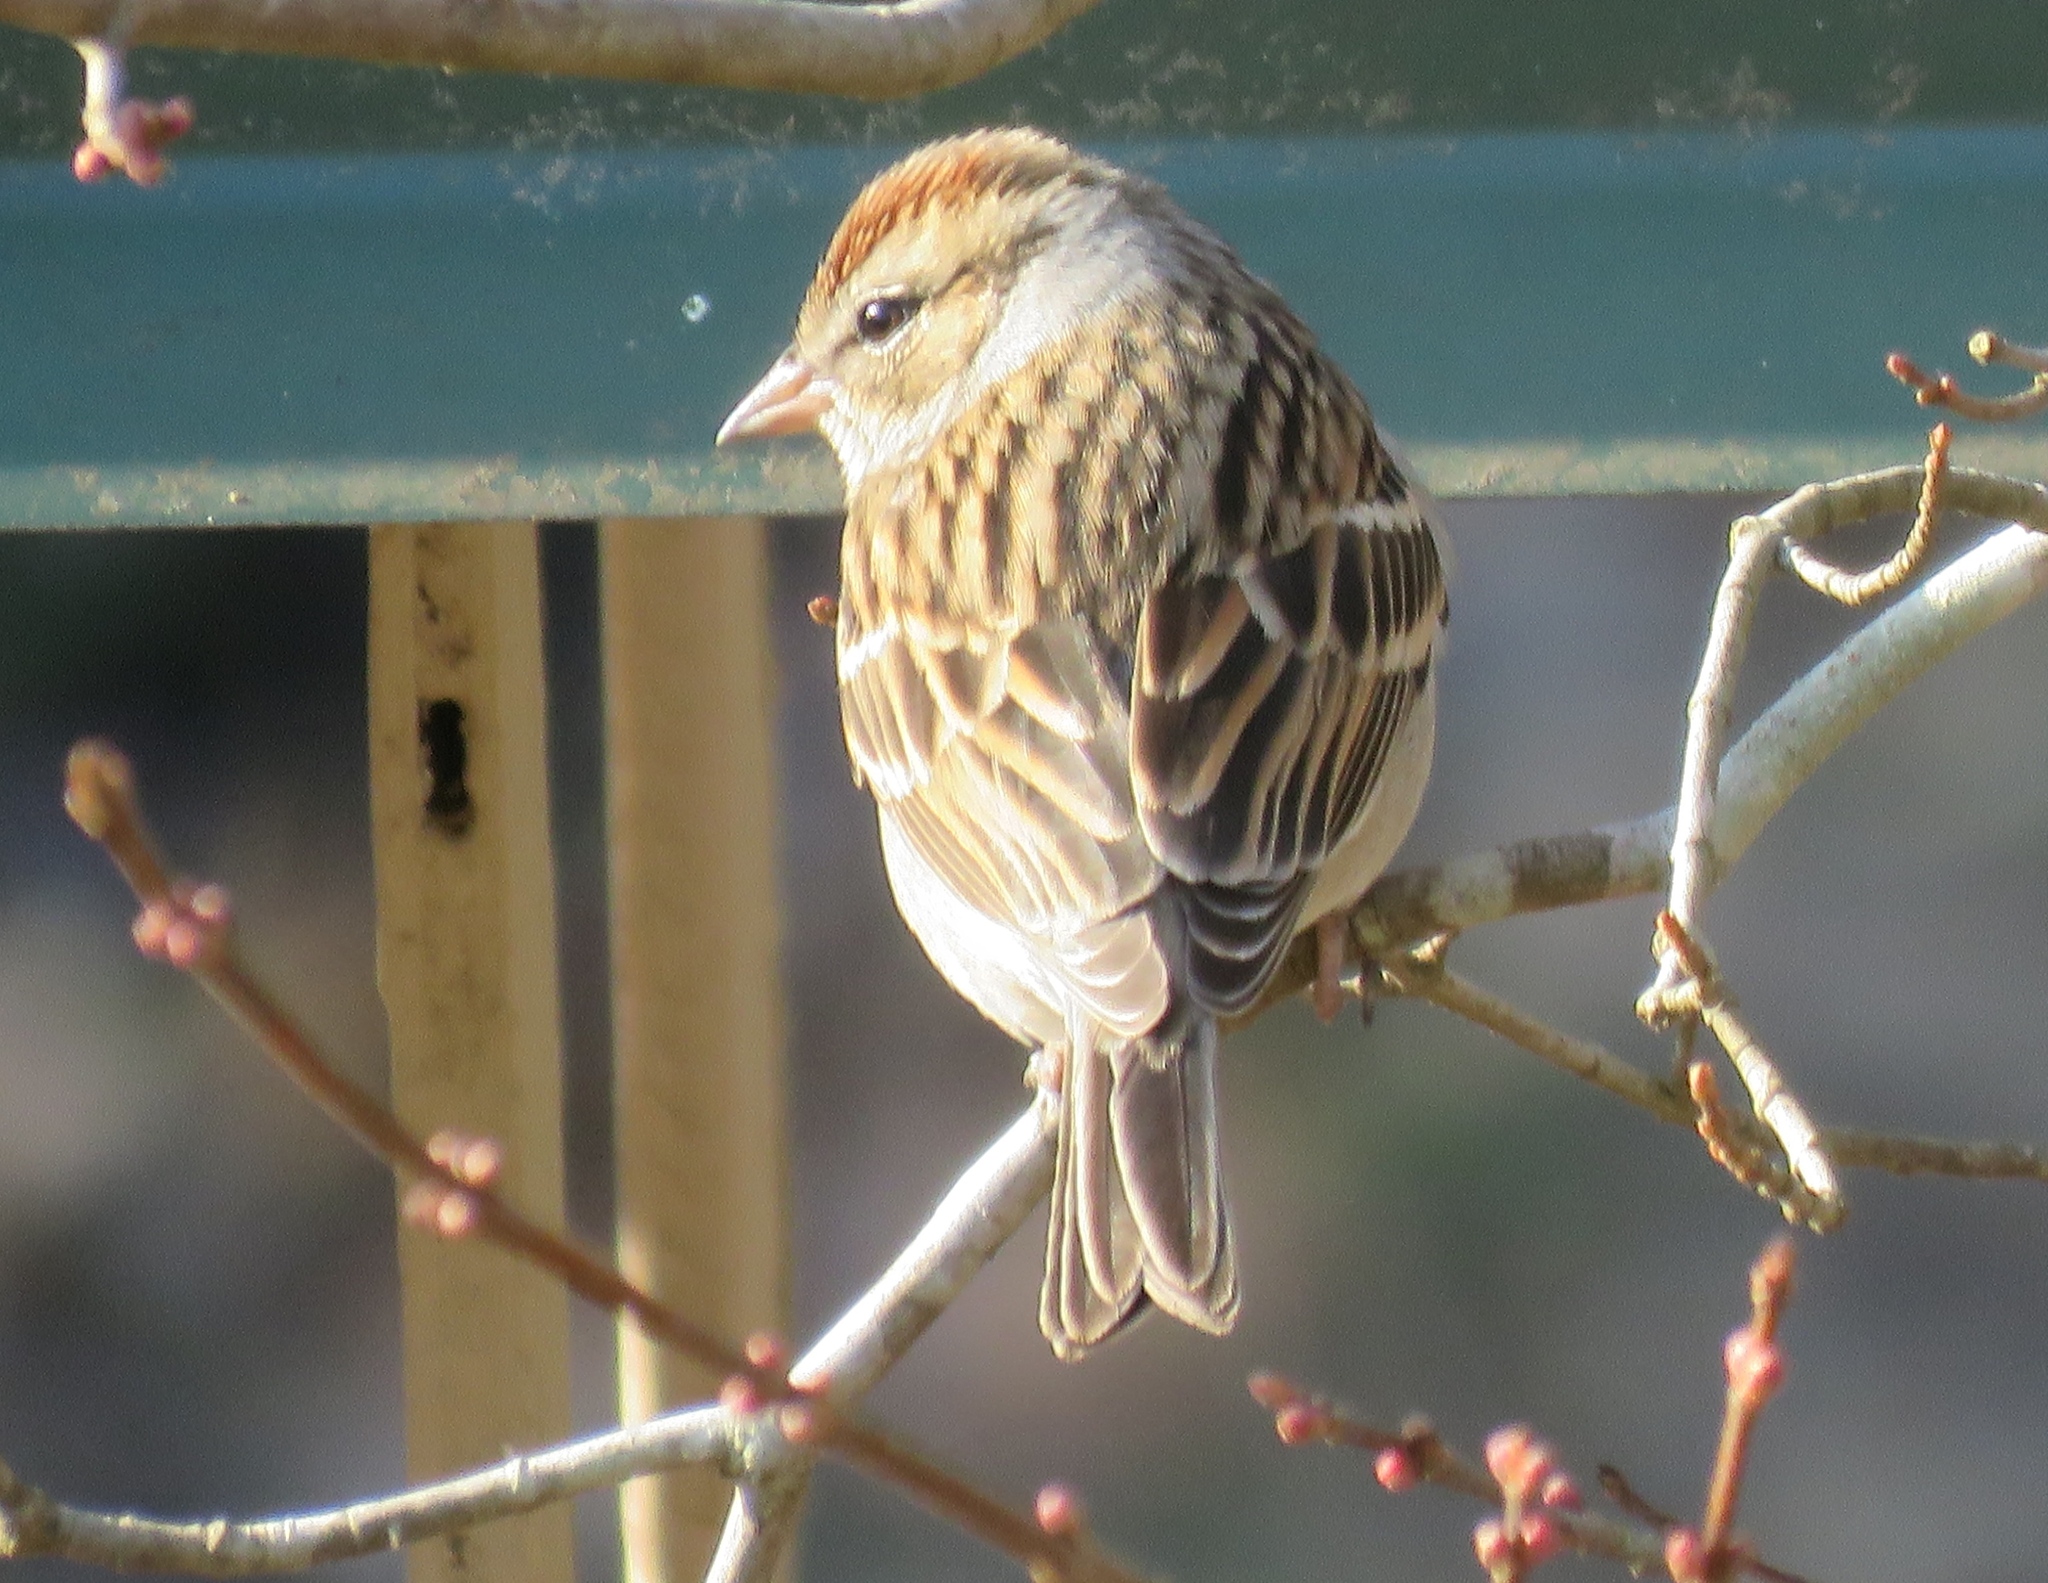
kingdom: Animalia
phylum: Chordata
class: Aves
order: Passeriformes
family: Passerellidae
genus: Spizella
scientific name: Spizella passerina
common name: Chipping sparrow
